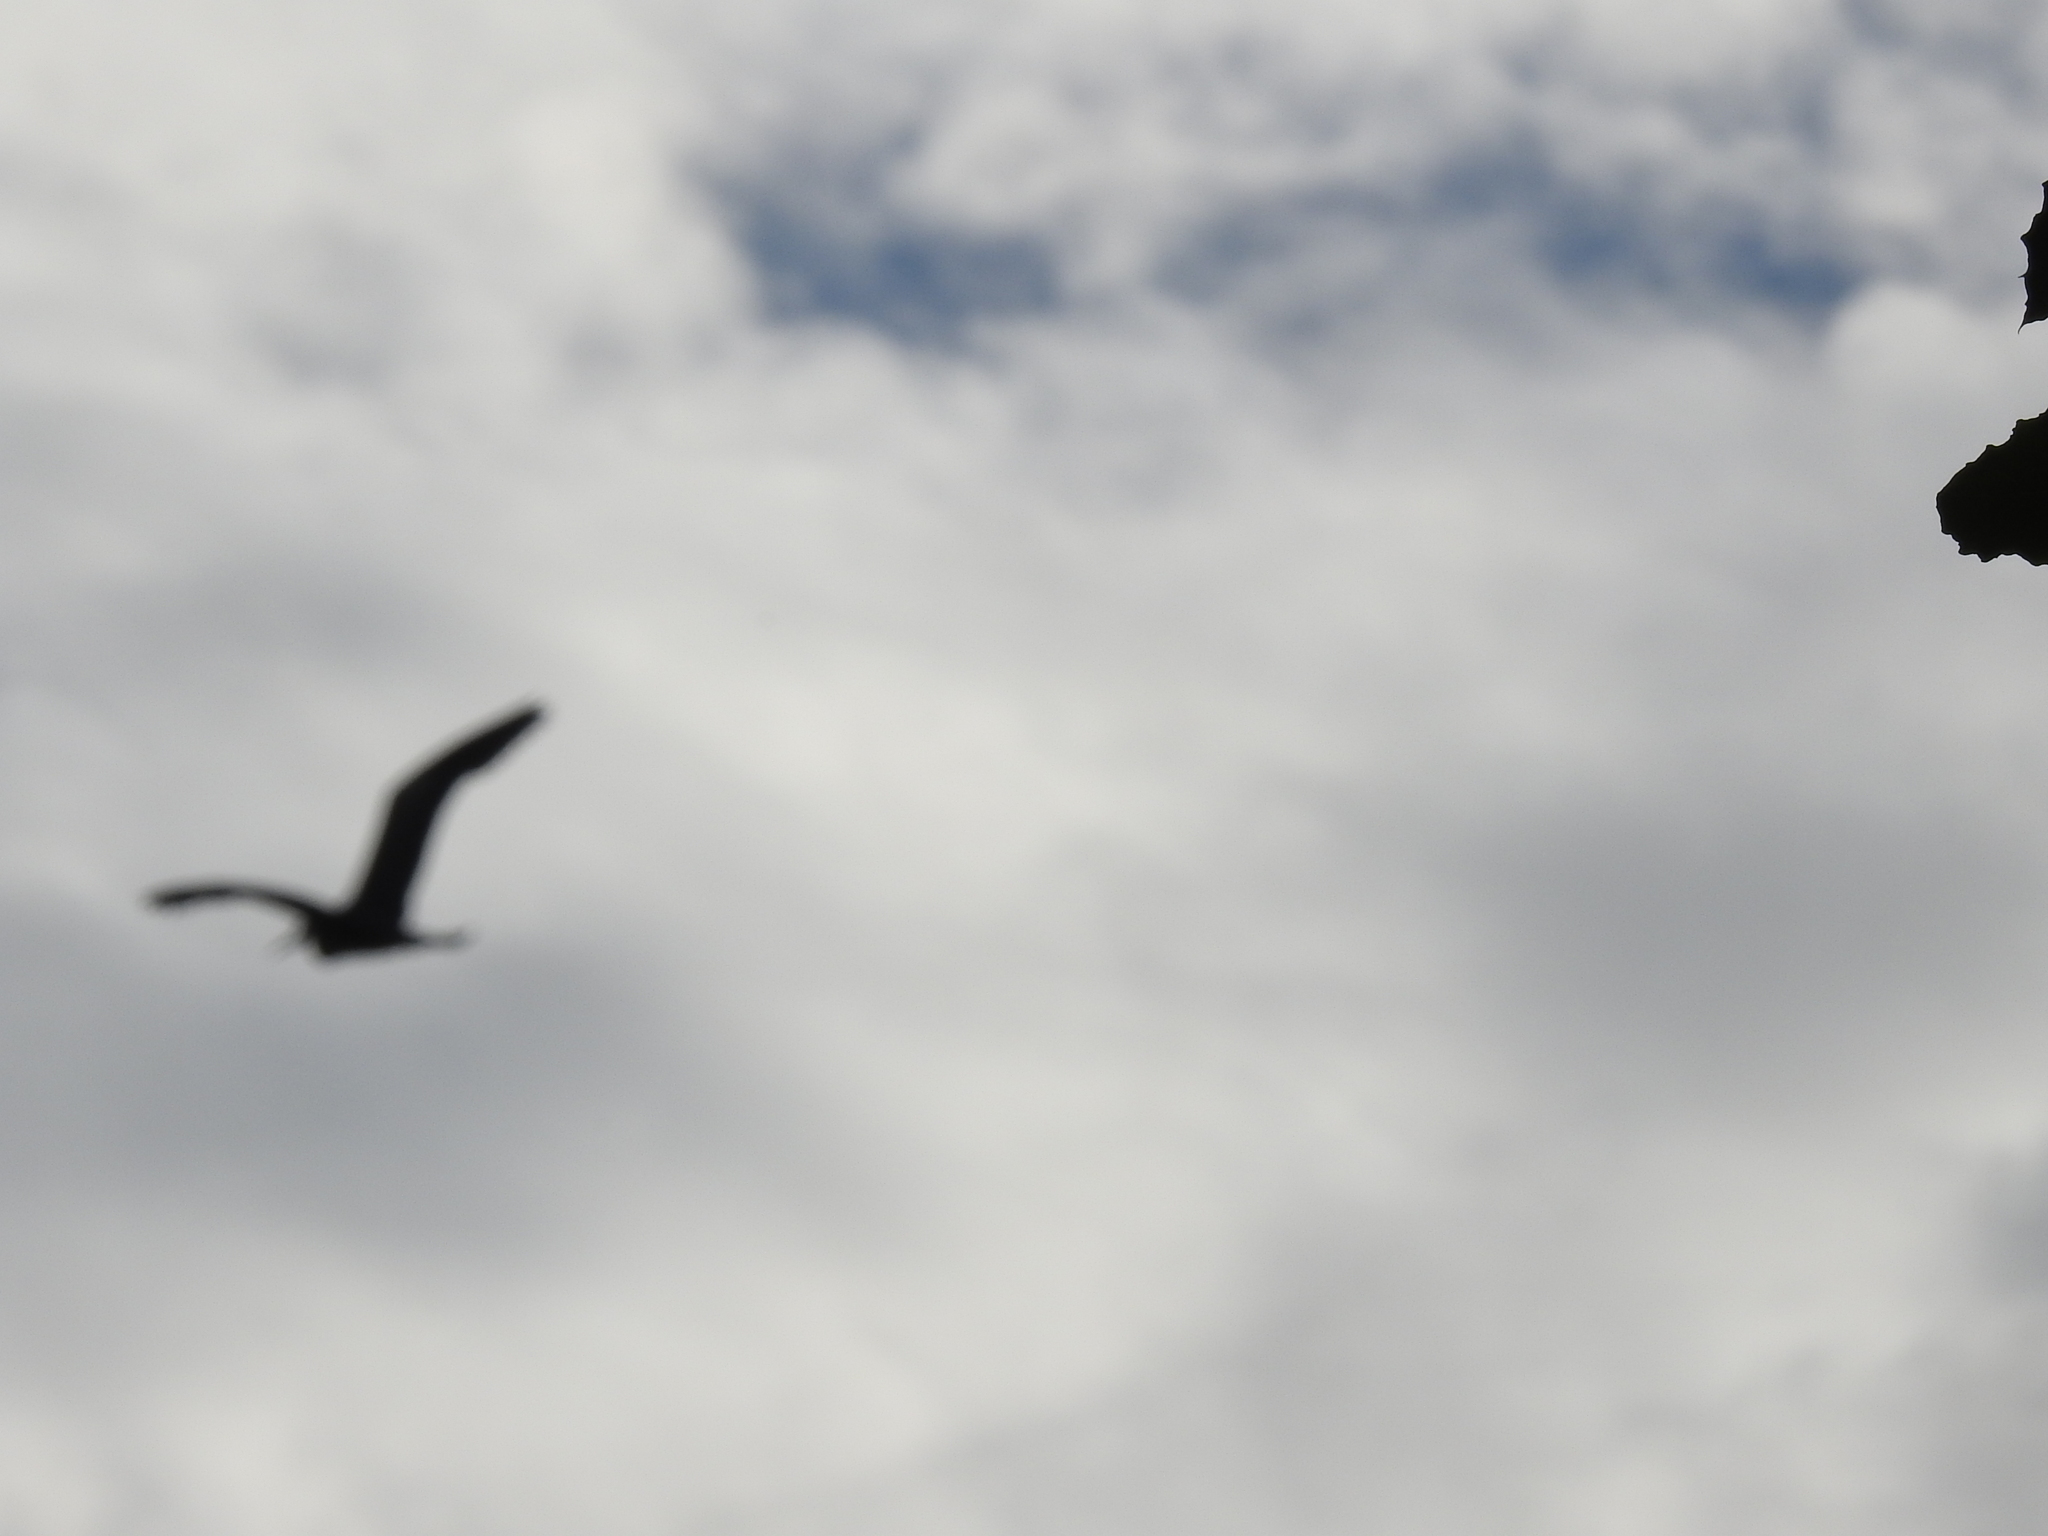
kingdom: Animalia
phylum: Chordata
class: Aves
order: Pelecaniformes
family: Ardeidae
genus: Ardea
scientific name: Ardea cinerea
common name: Grey heron
